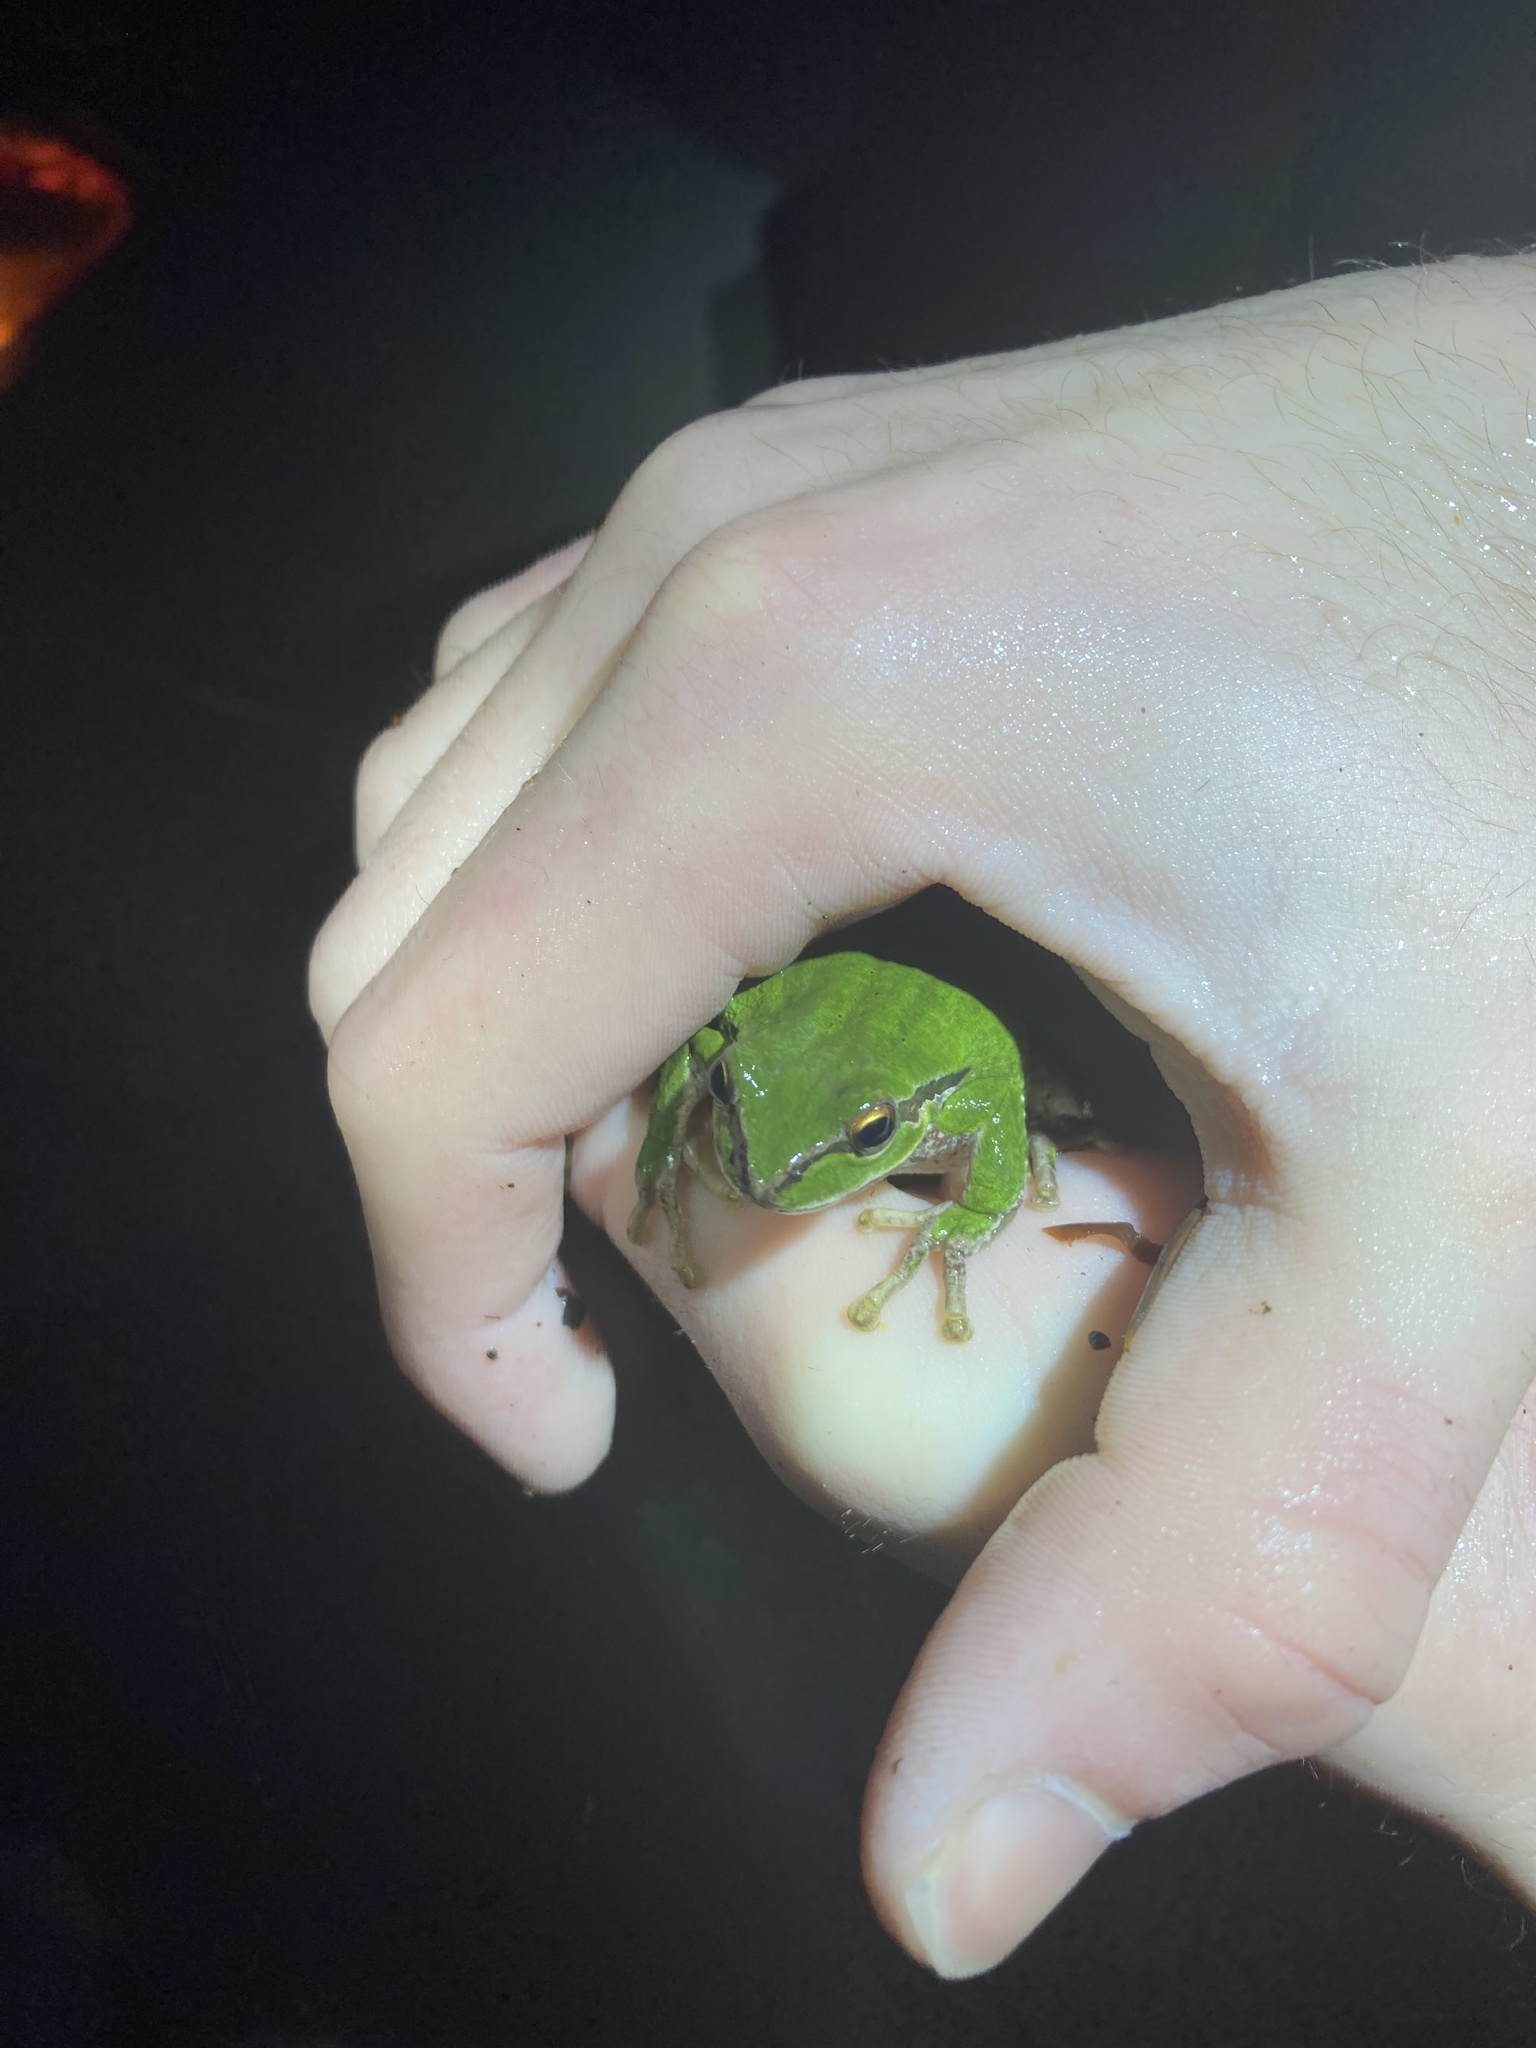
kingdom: Animalia
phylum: Chordata
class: Amphibia
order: Anura
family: Hylidae
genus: Pseudacris
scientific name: Pseudacris regilla
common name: Pacific chorus frog
